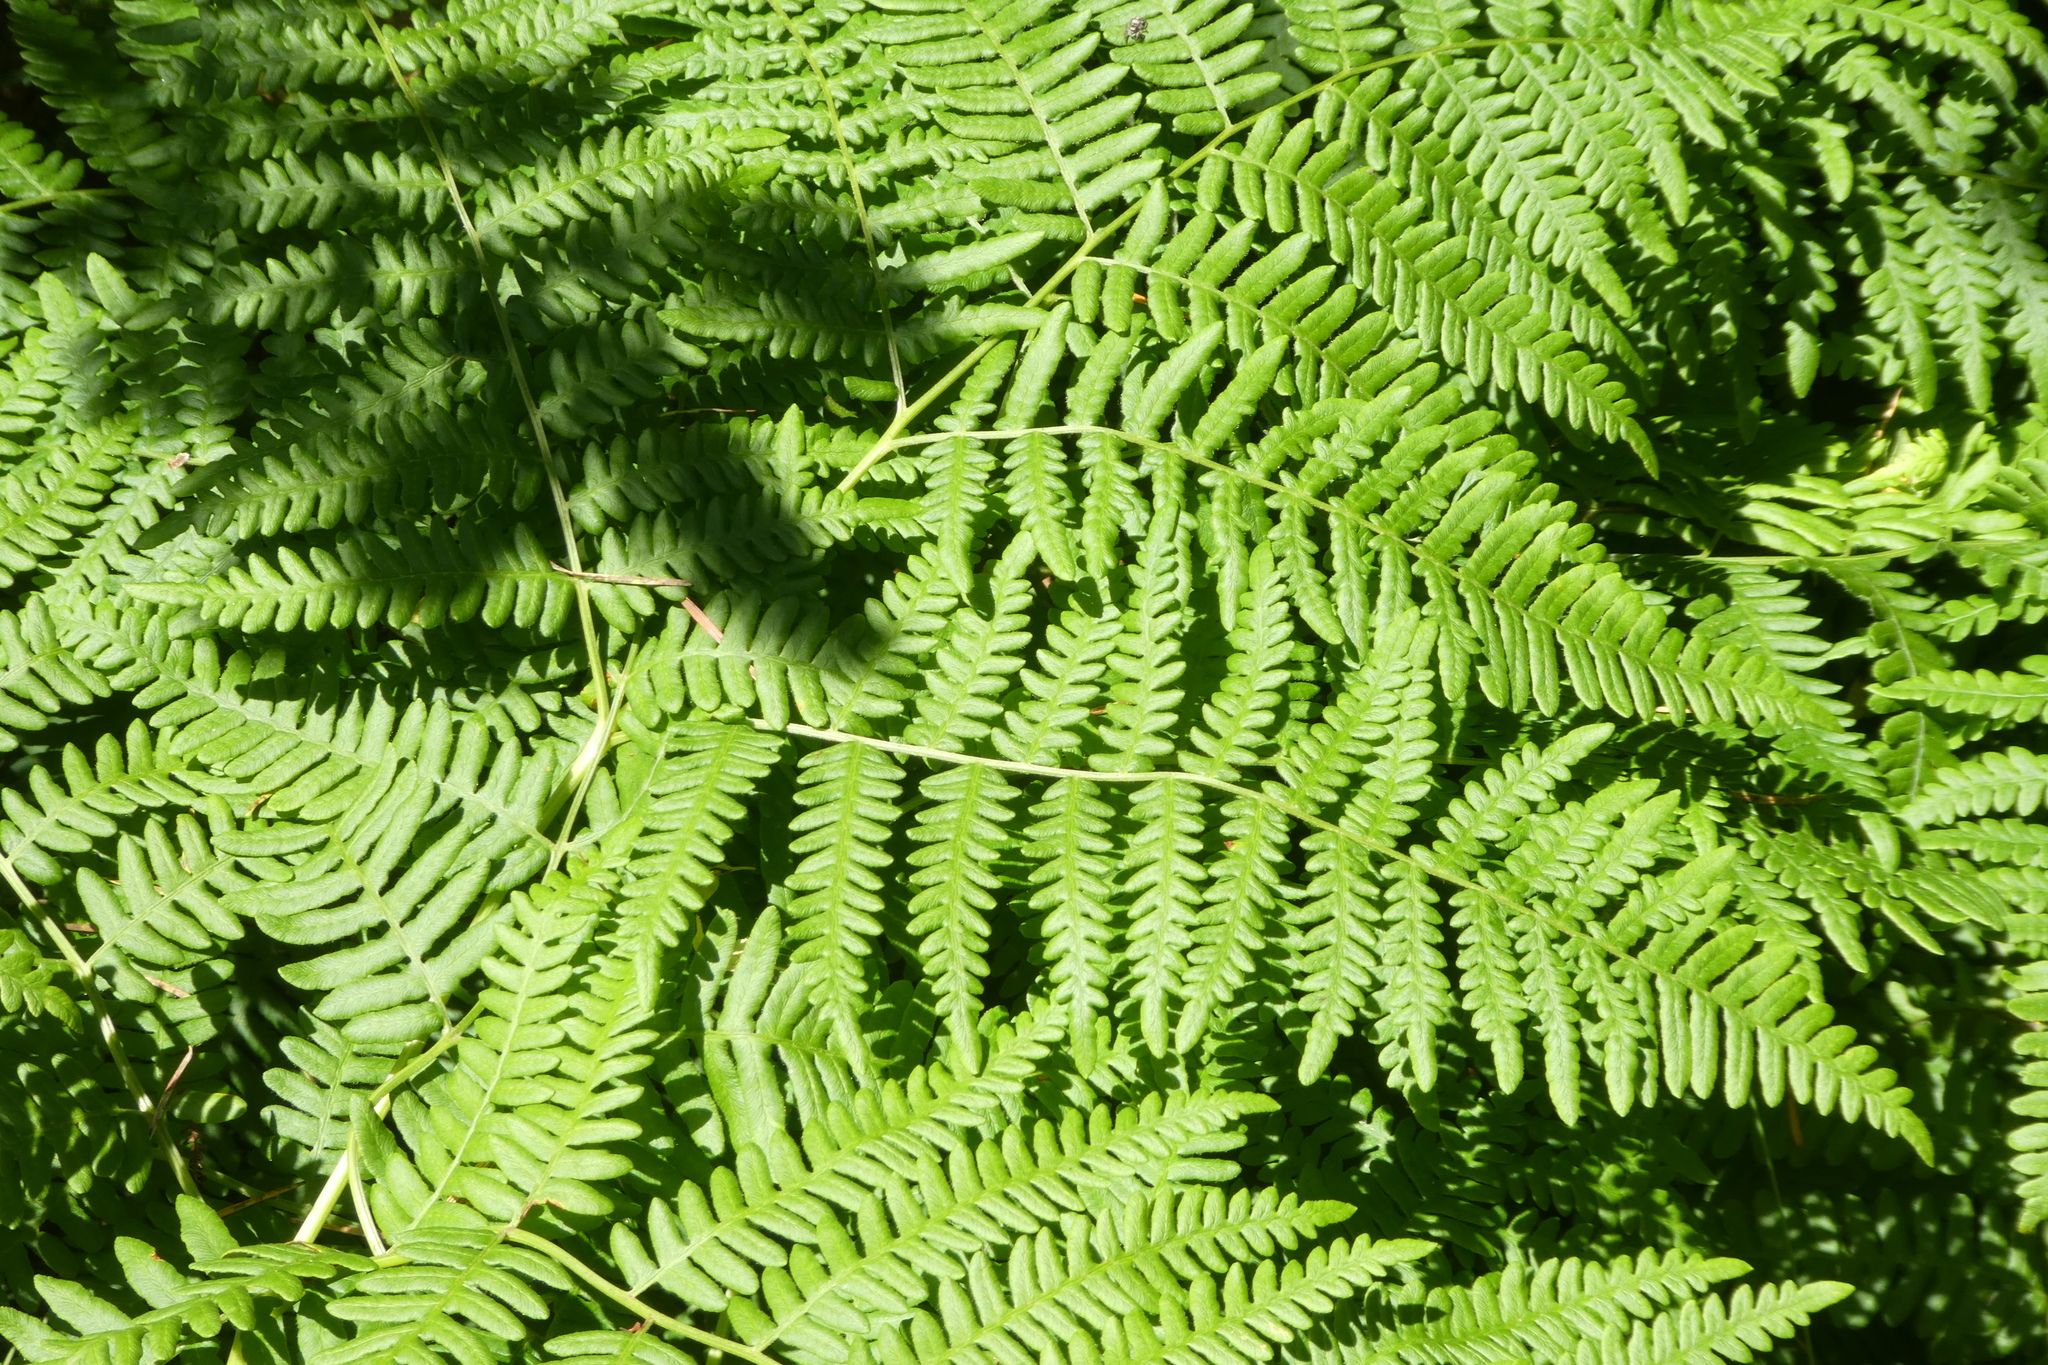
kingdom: Plantae
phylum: Tracheophyta
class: Polypodiopsida
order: Polypodiales
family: Dennstaedtiaceae
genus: Pteridium
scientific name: Pteridium aquilinum
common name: Bracken
